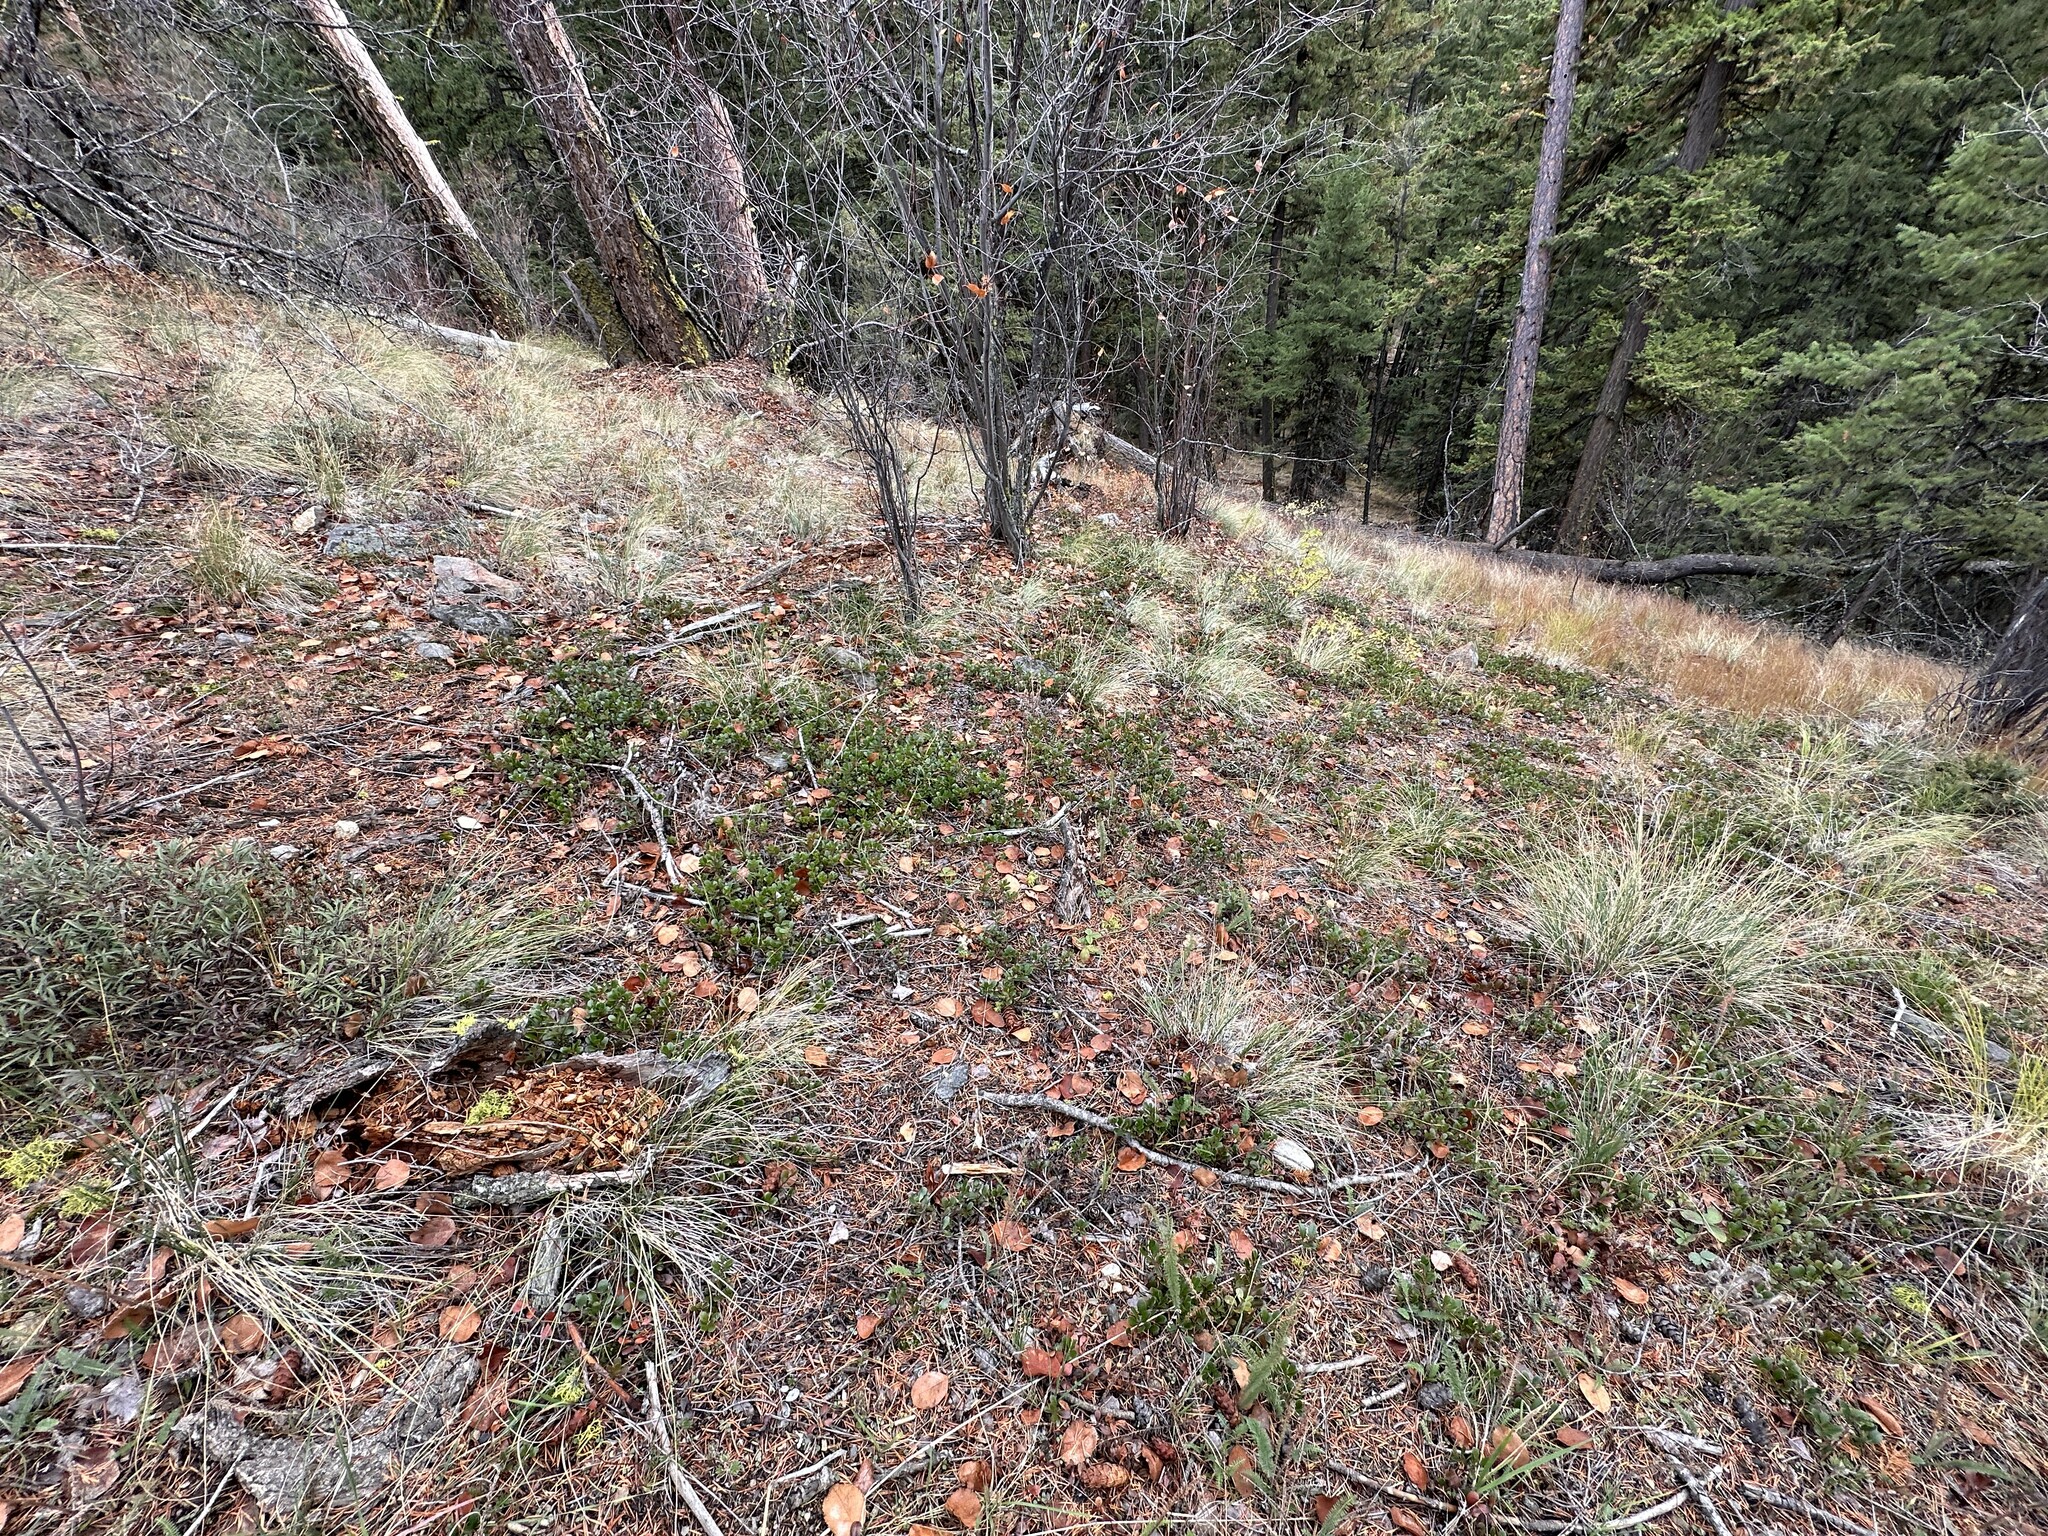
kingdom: Plantae
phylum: Tracheophyta
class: Magnoliopsida
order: Ericales
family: Ericaceae
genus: Arctostaphylos
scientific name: Arctostaphylos uva-ursi
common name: Bearberry
